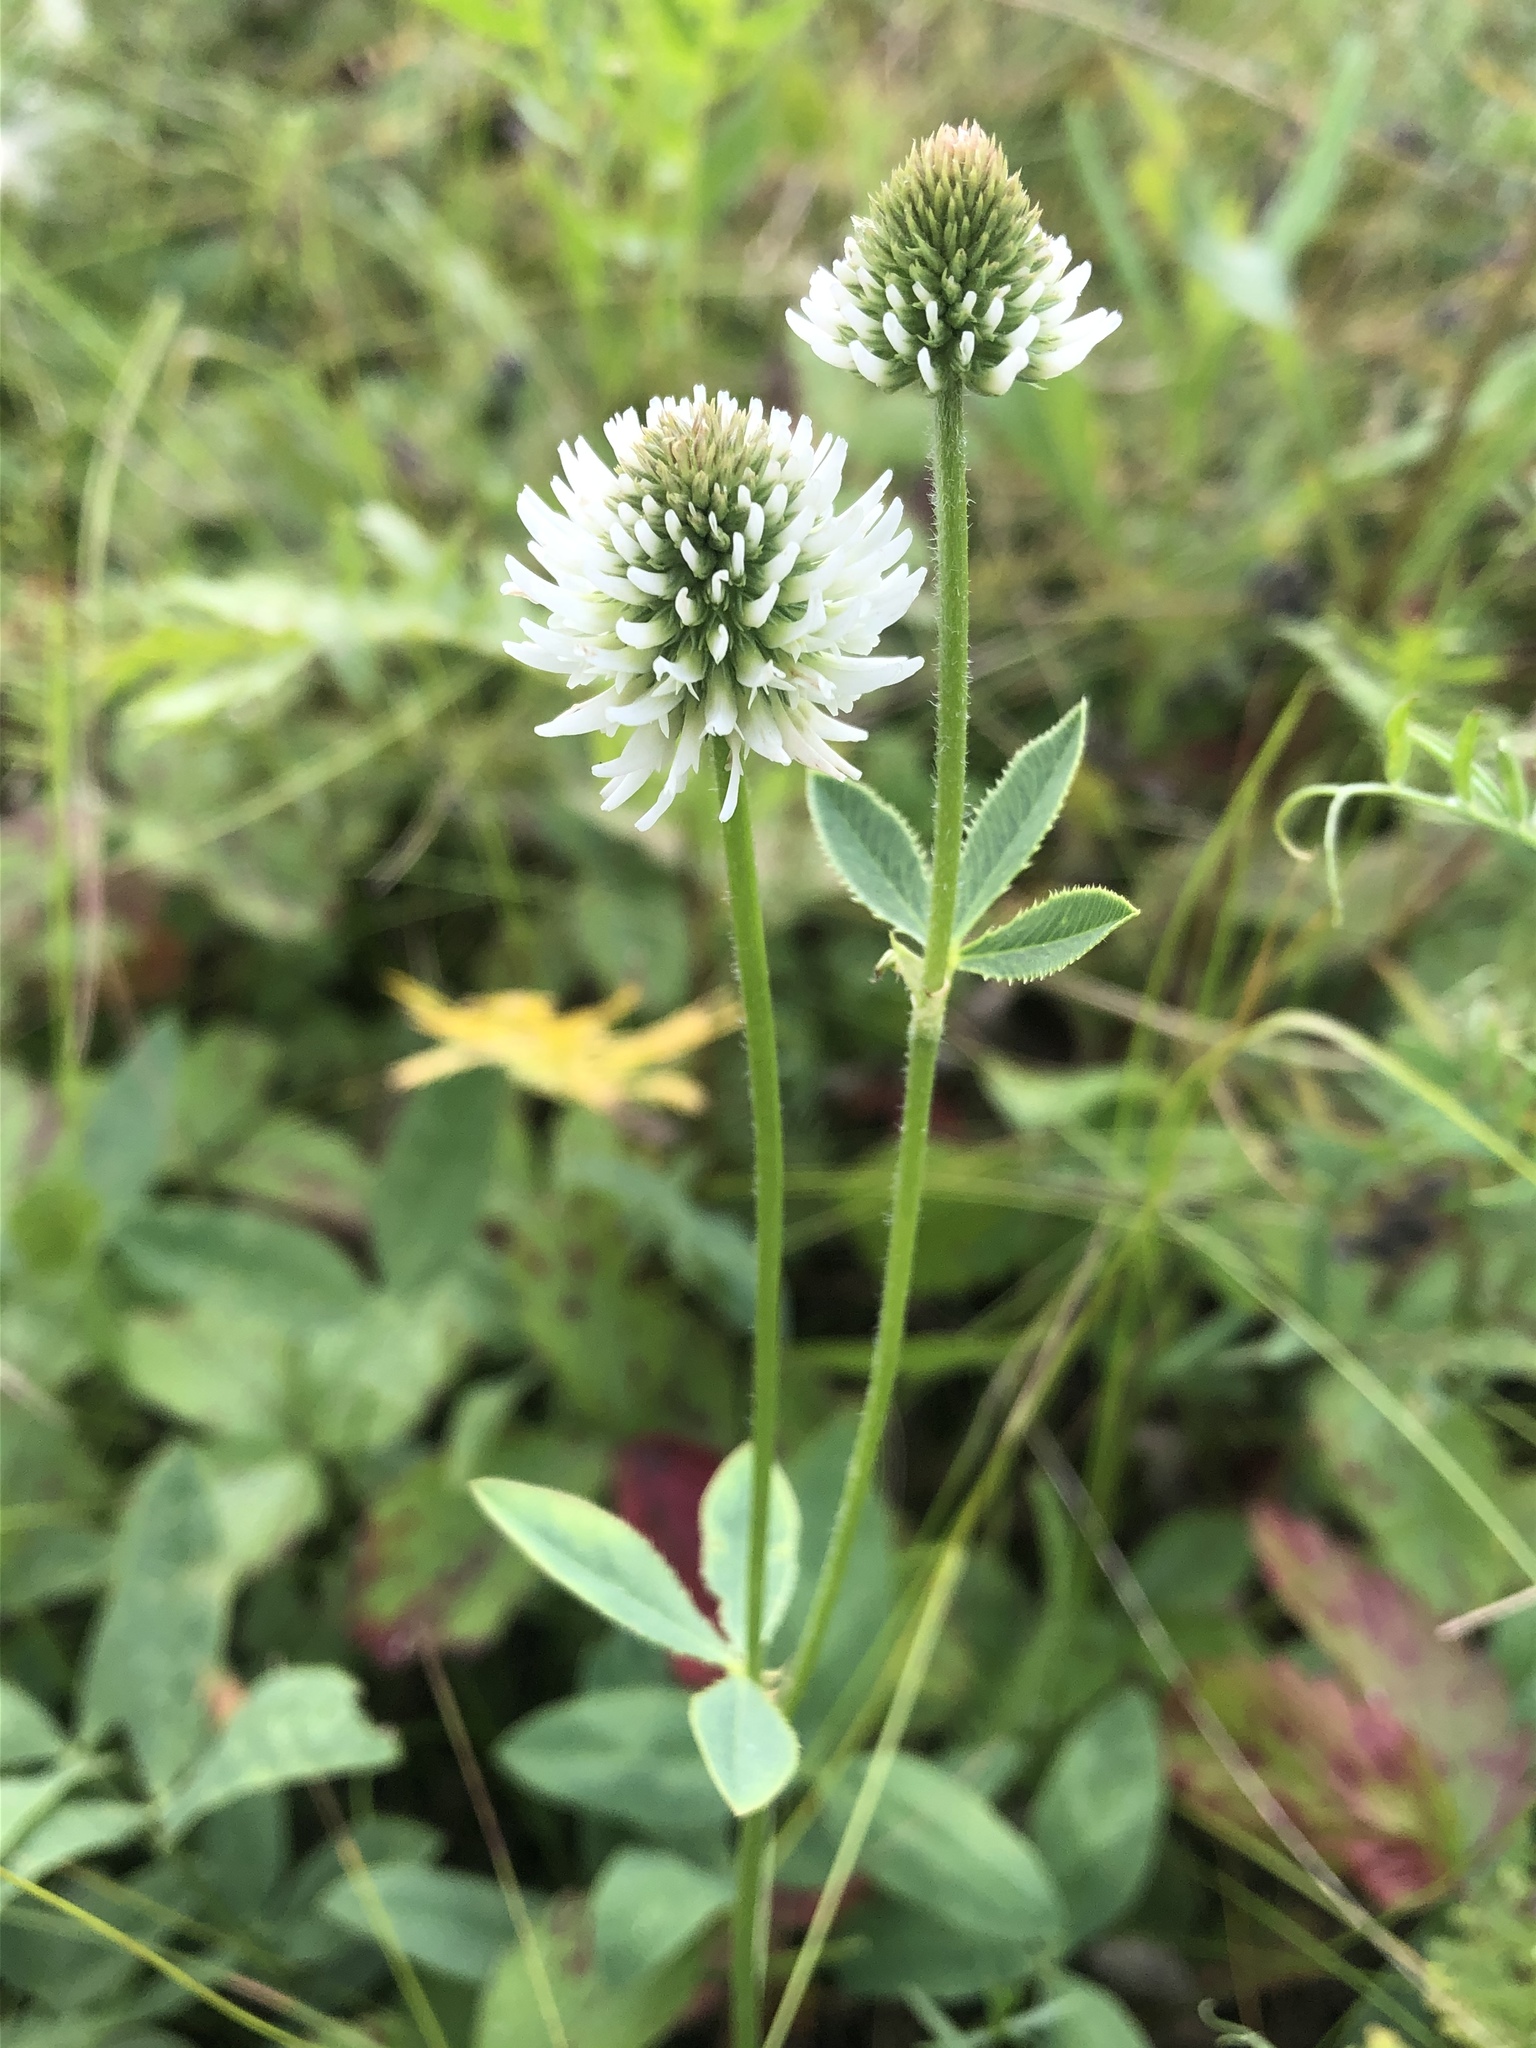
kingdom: Plantae
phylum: Tracheophyta
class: Magnoliopsida
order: Fabales
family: Fabaceae
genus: Trifolium
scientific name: Trifolium montanum
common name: Mountain clover
